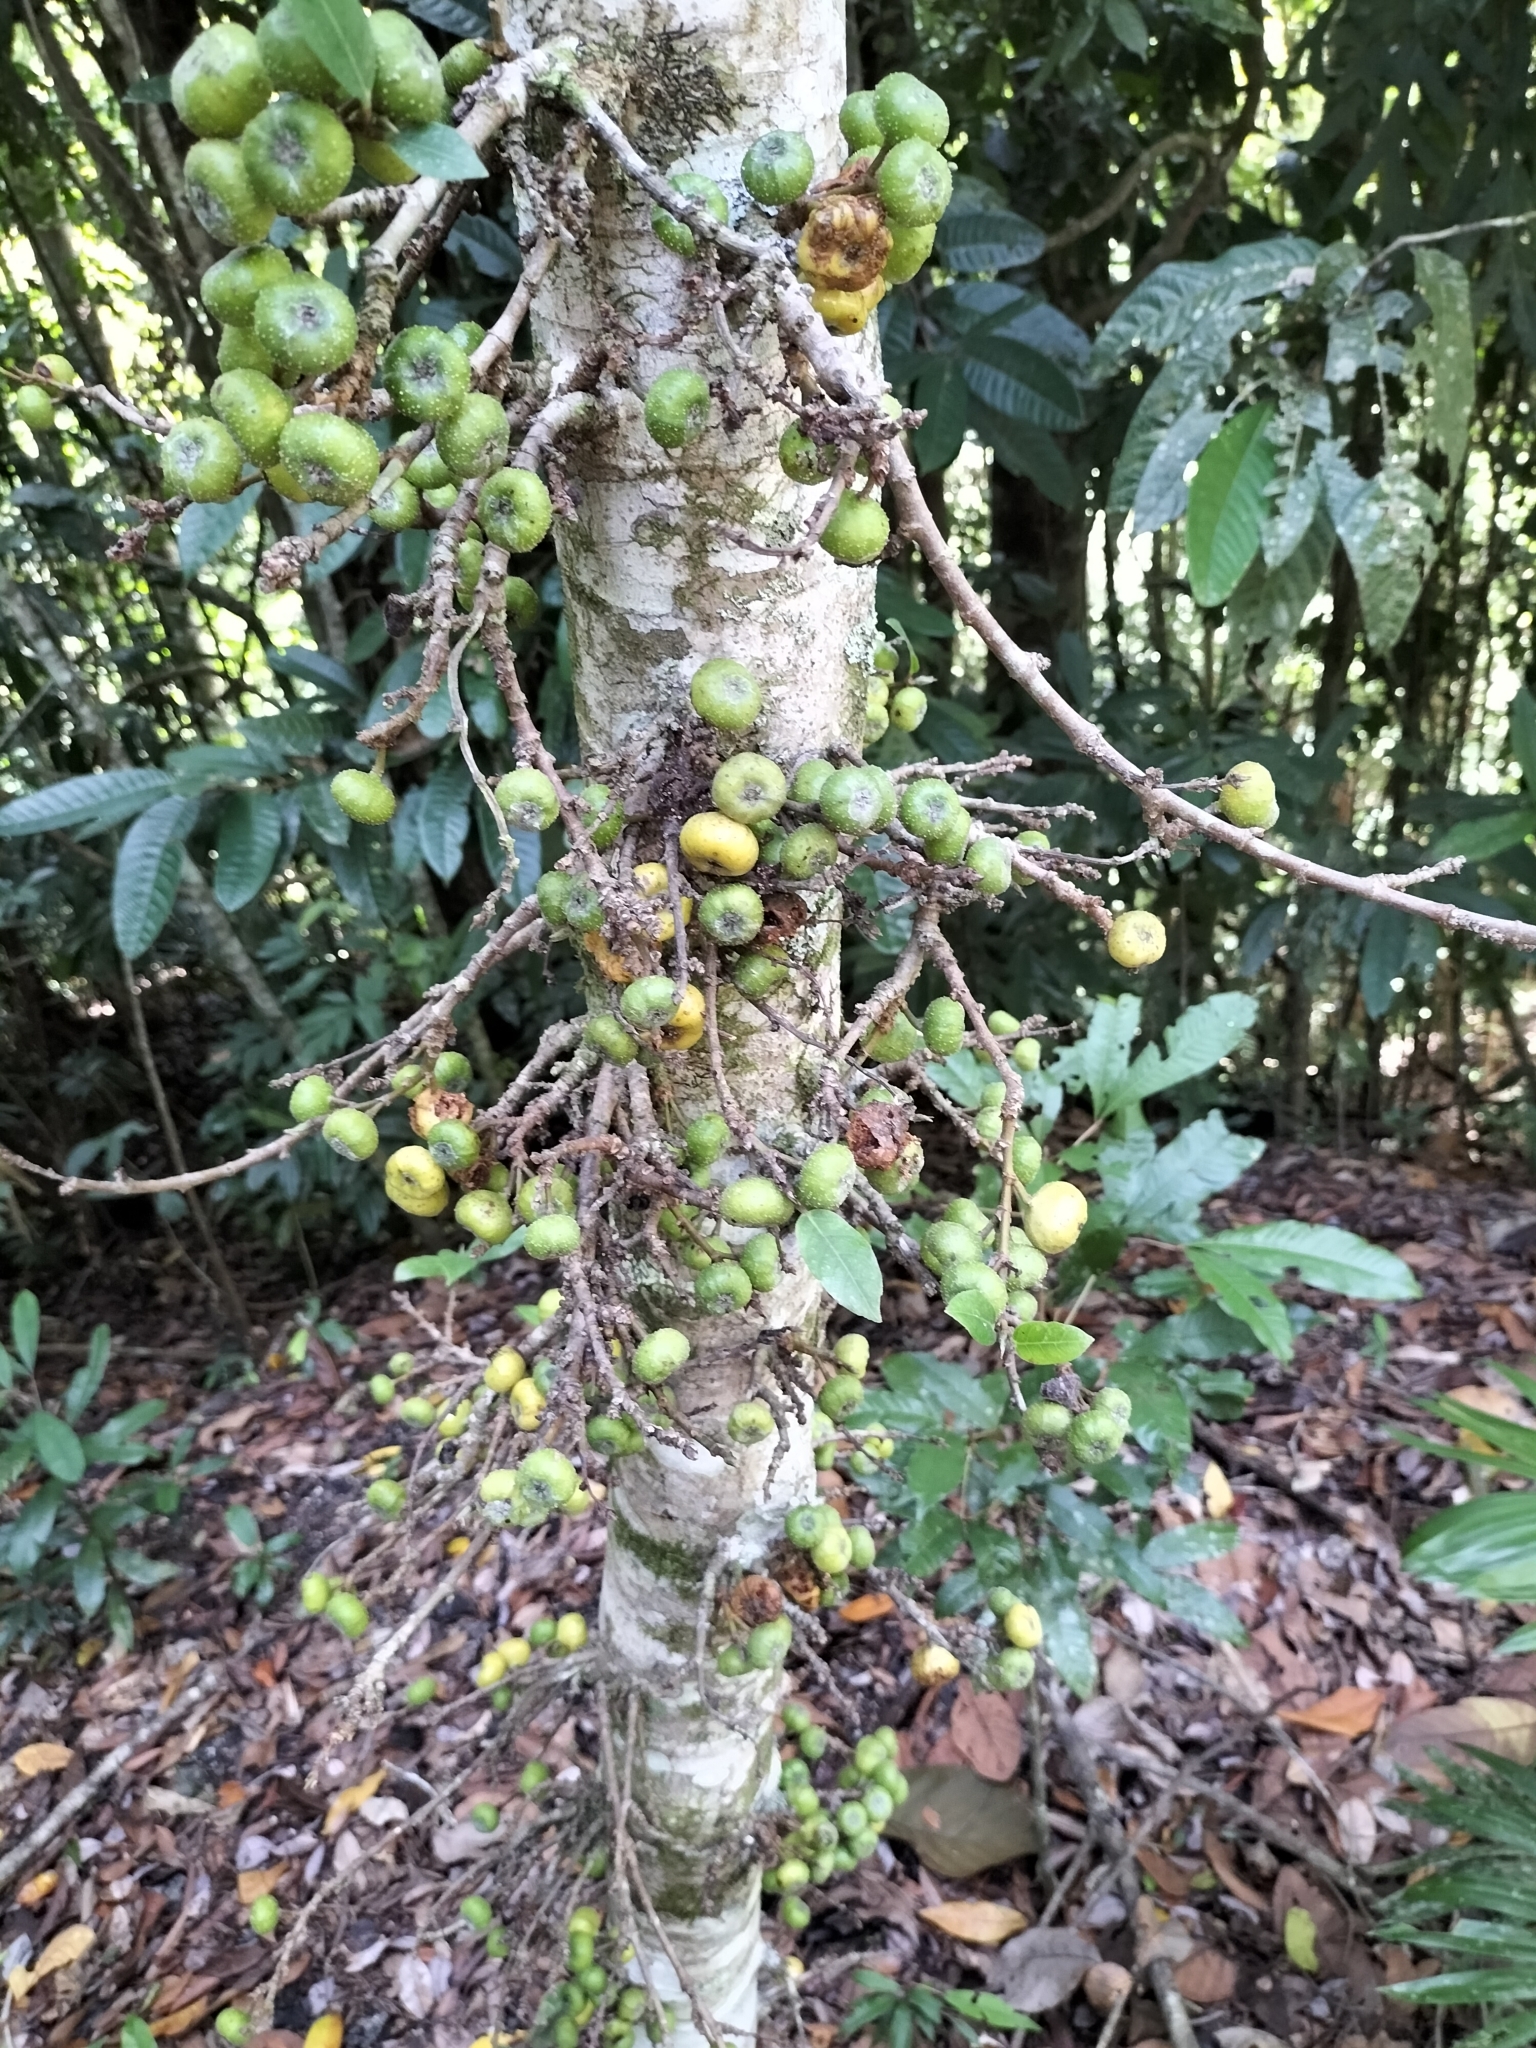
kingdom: Plantae
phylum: Tracheophyta
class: Magnoliopsida
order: Rosales
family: Moraceae
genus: Ficus
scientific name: Ficus congesta
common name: Cluster fig
